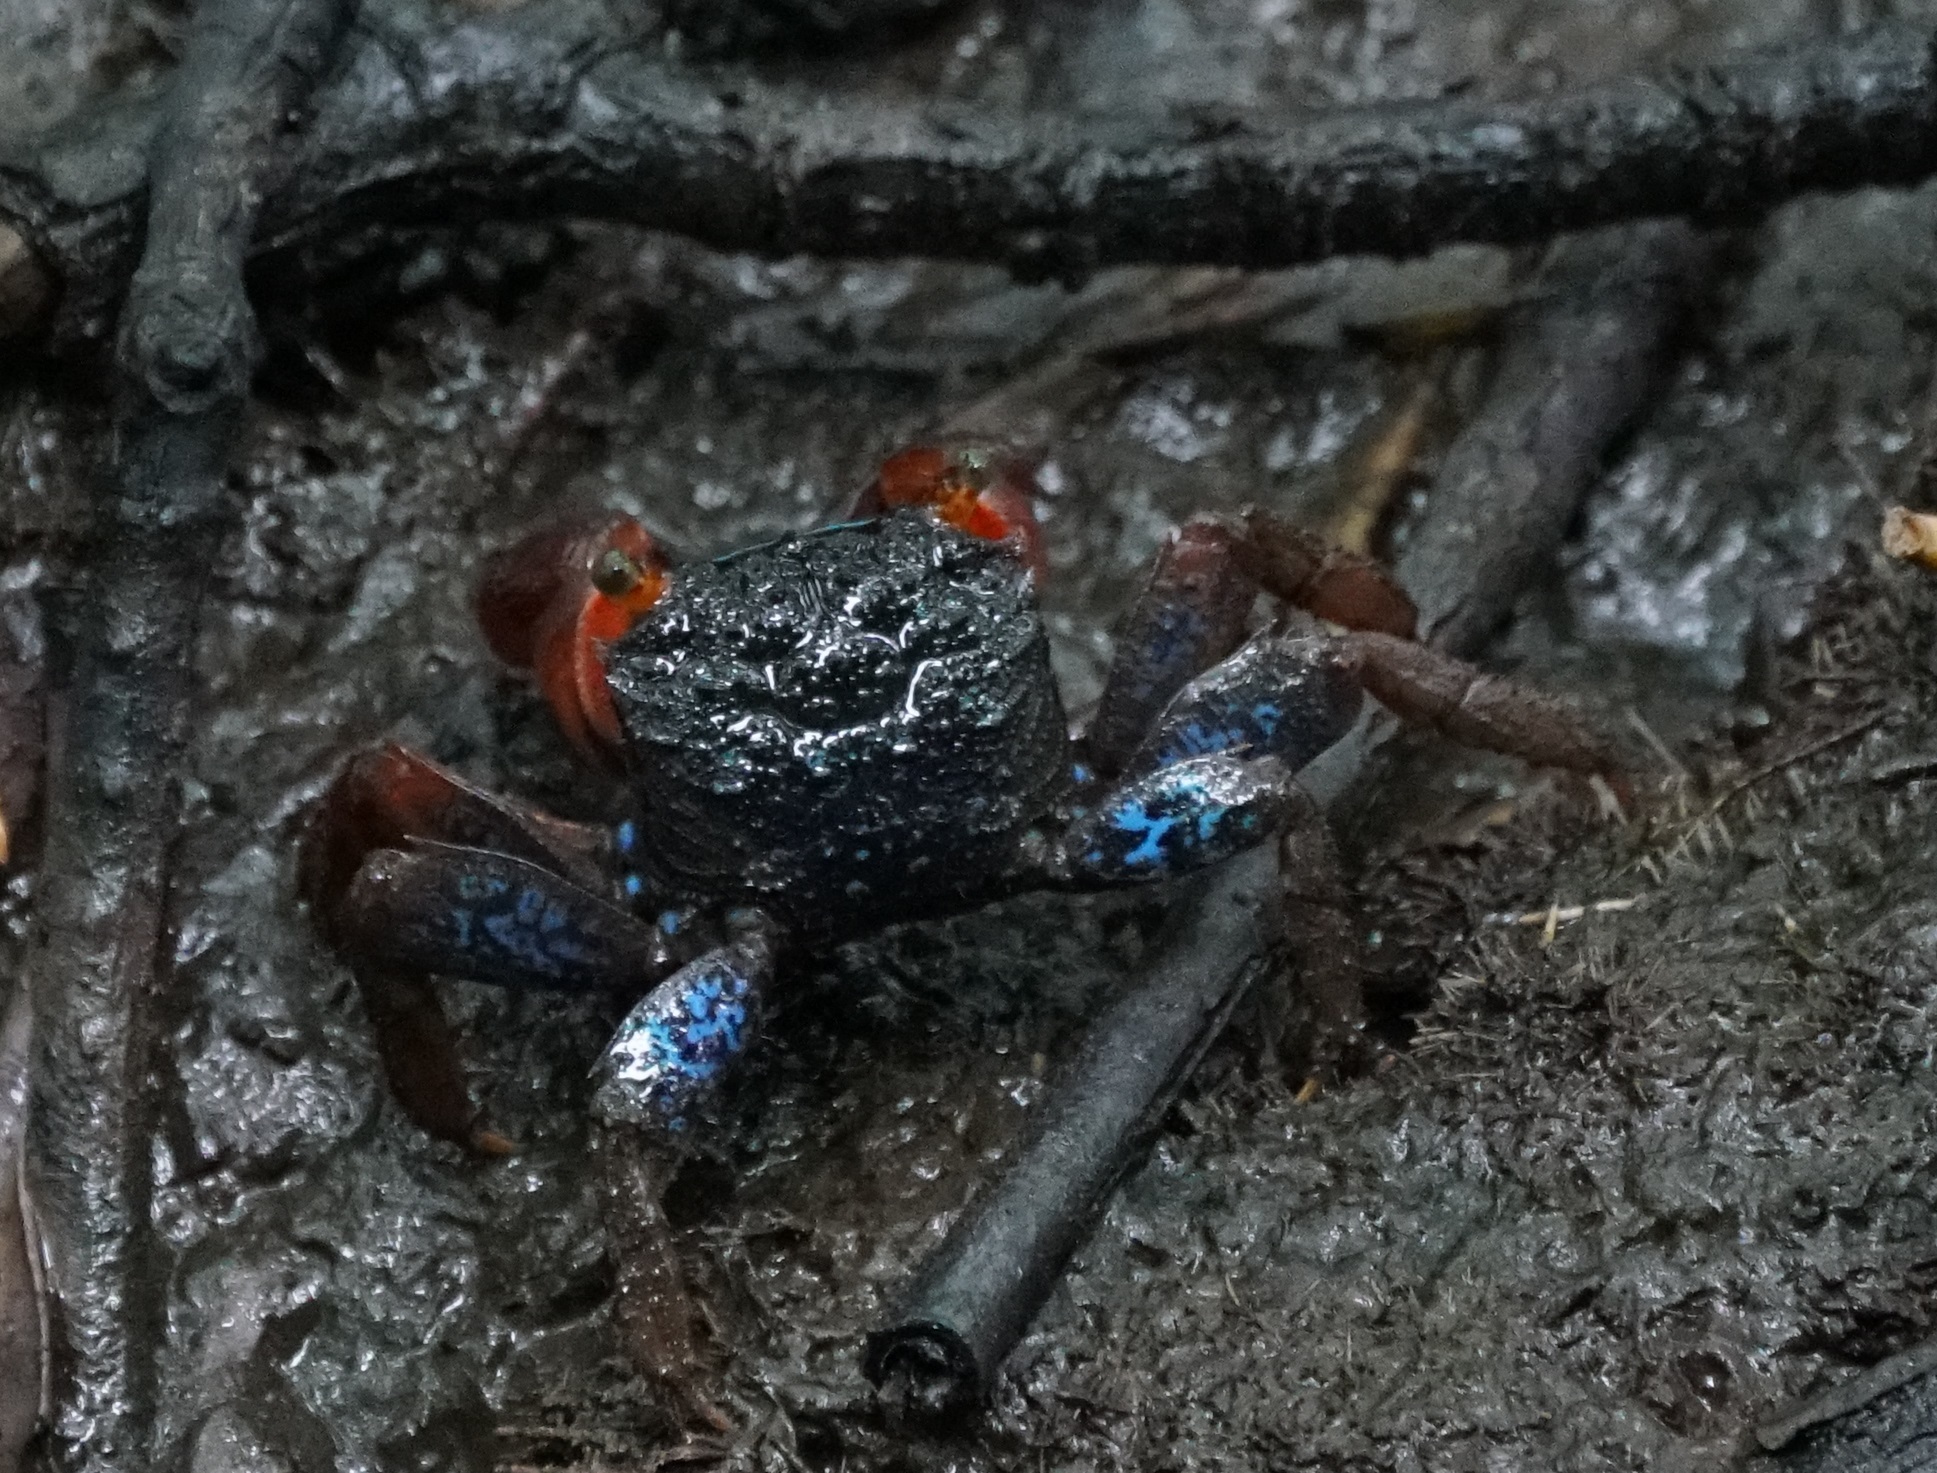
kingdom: Animalia
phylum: Arthropoda
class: Malacostraca
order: Decapoda
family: Sesarmidae
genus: Parasesarma
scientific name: Parasesarma indiarum
